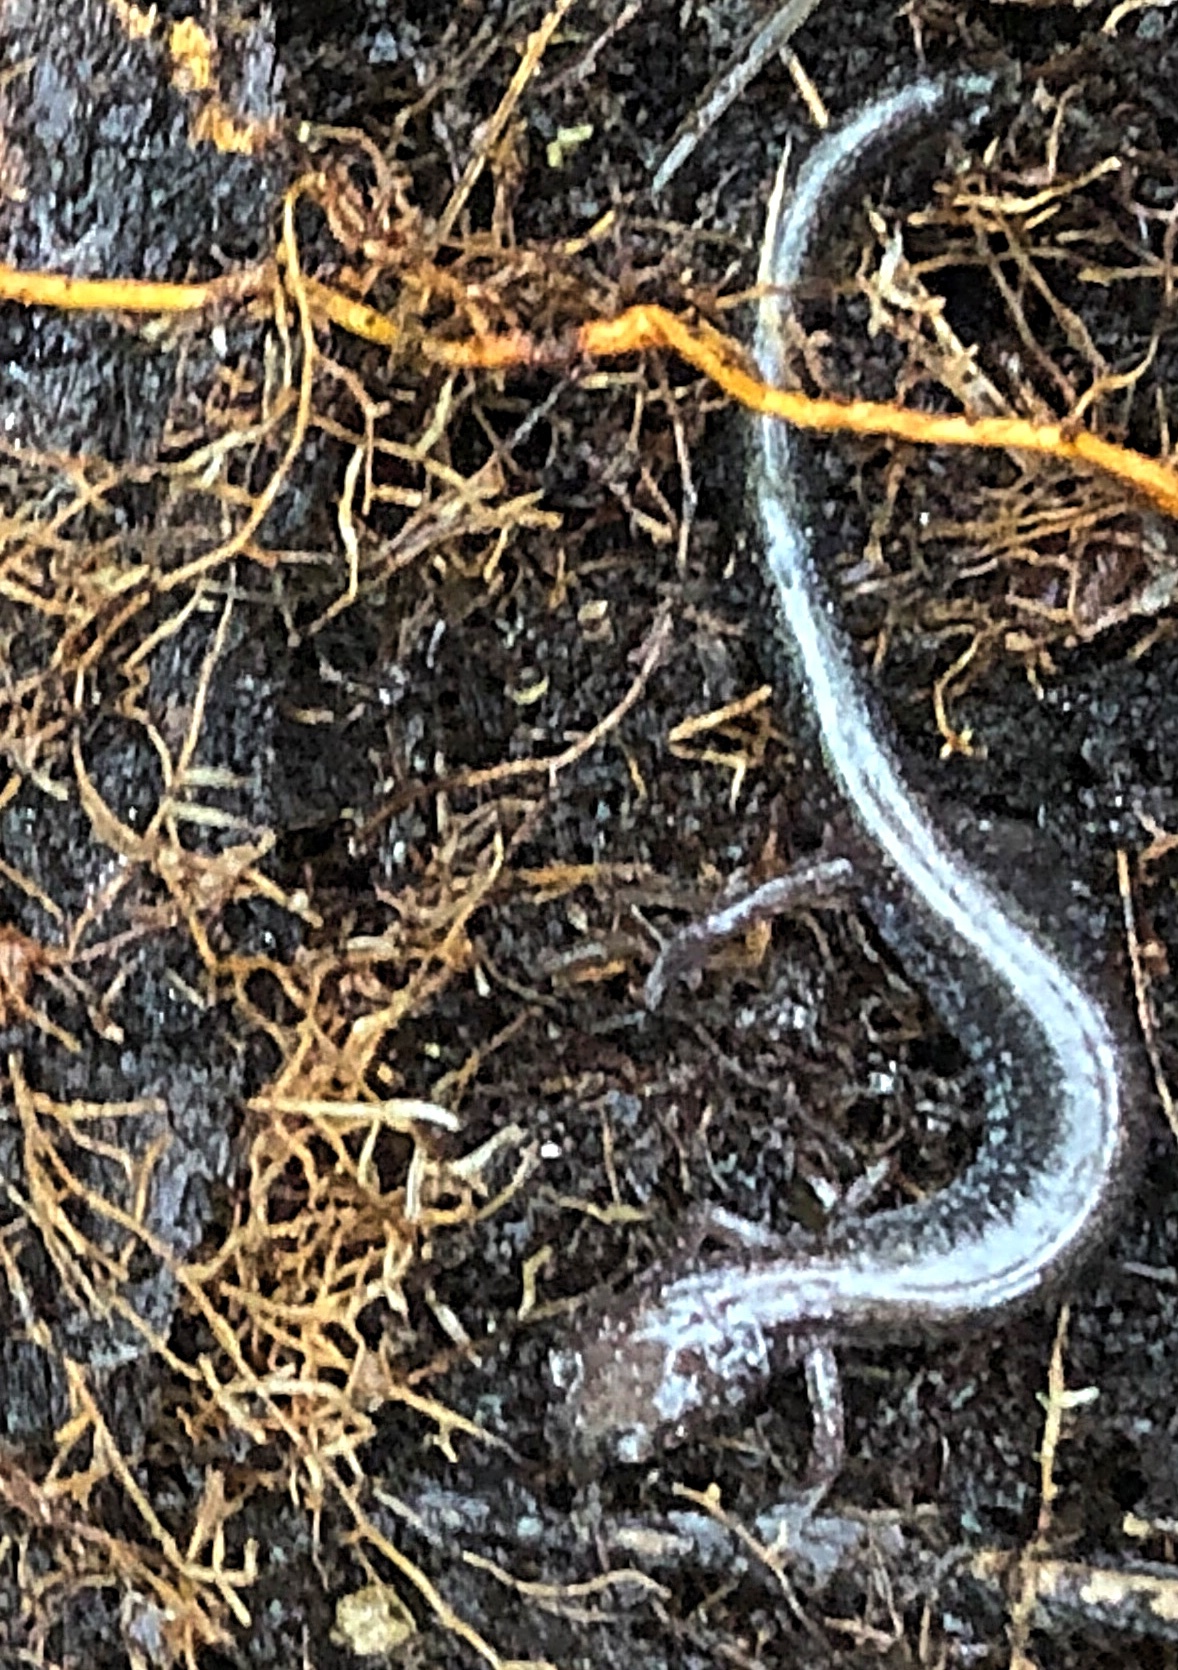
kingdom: Animalia
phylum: Chordata
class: Amphibia
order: Caudata
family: Plethodontidae
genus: Plethodon
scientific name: Plethodon cinereus
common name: Redback salamander
